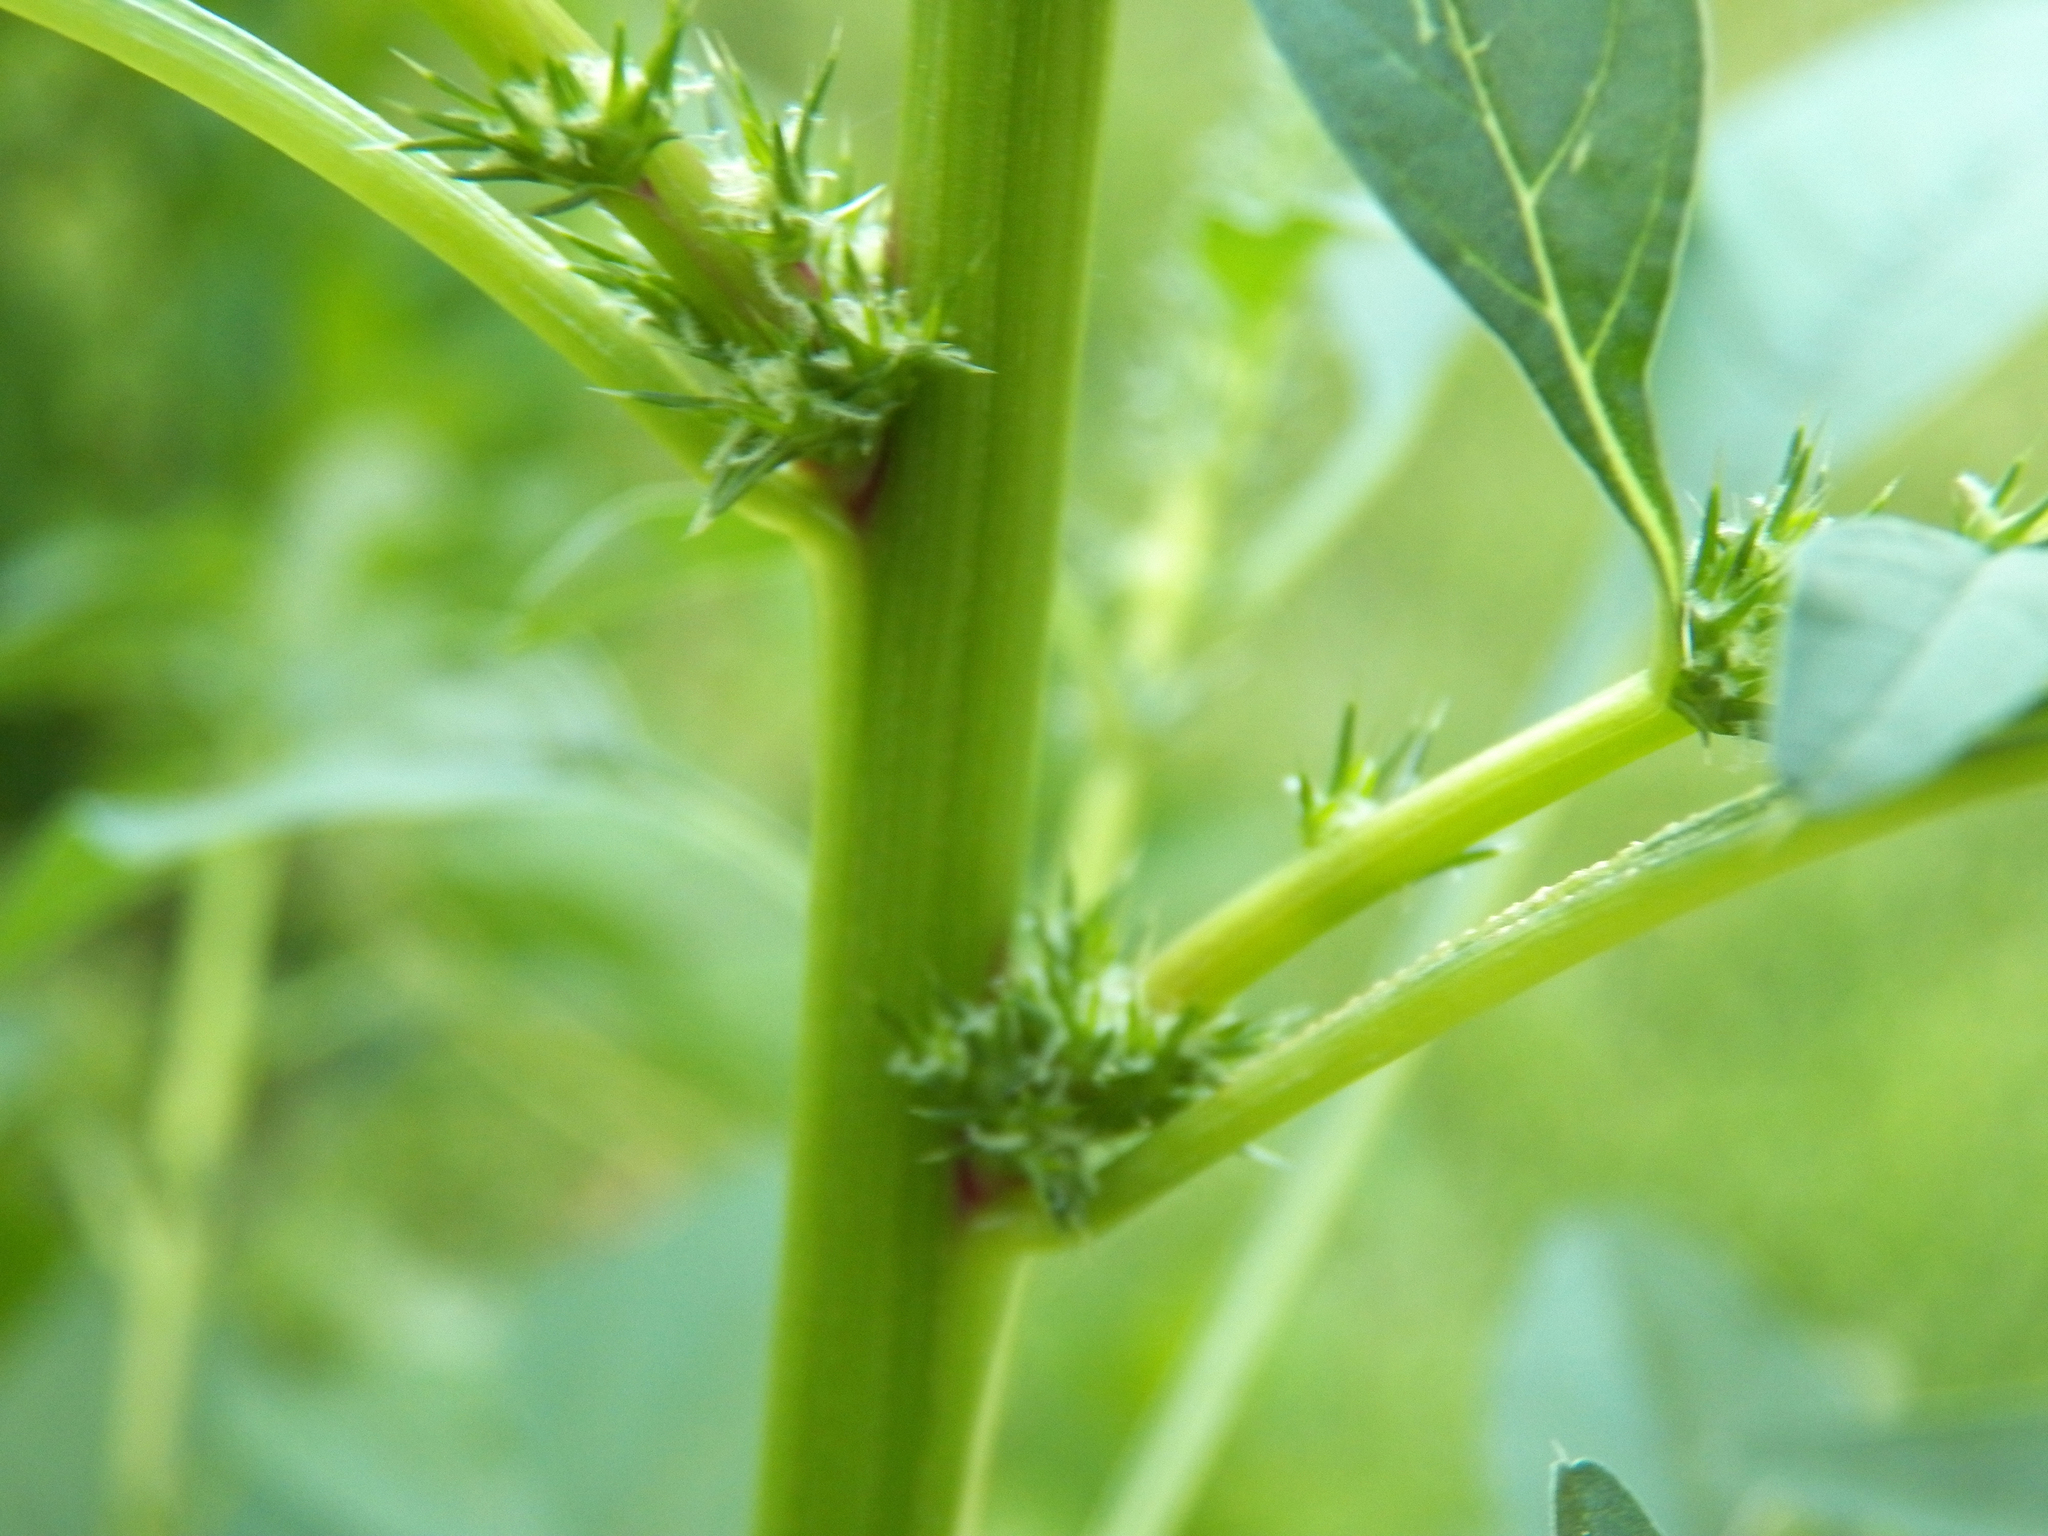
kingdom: Plantae
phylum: Tracheophyta
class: Magnoliopsida
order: Caryophyllales
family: Amaranthaceae
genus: Amaranthus
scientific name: Amaranthus palmeri
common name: Dioecious amaranth
